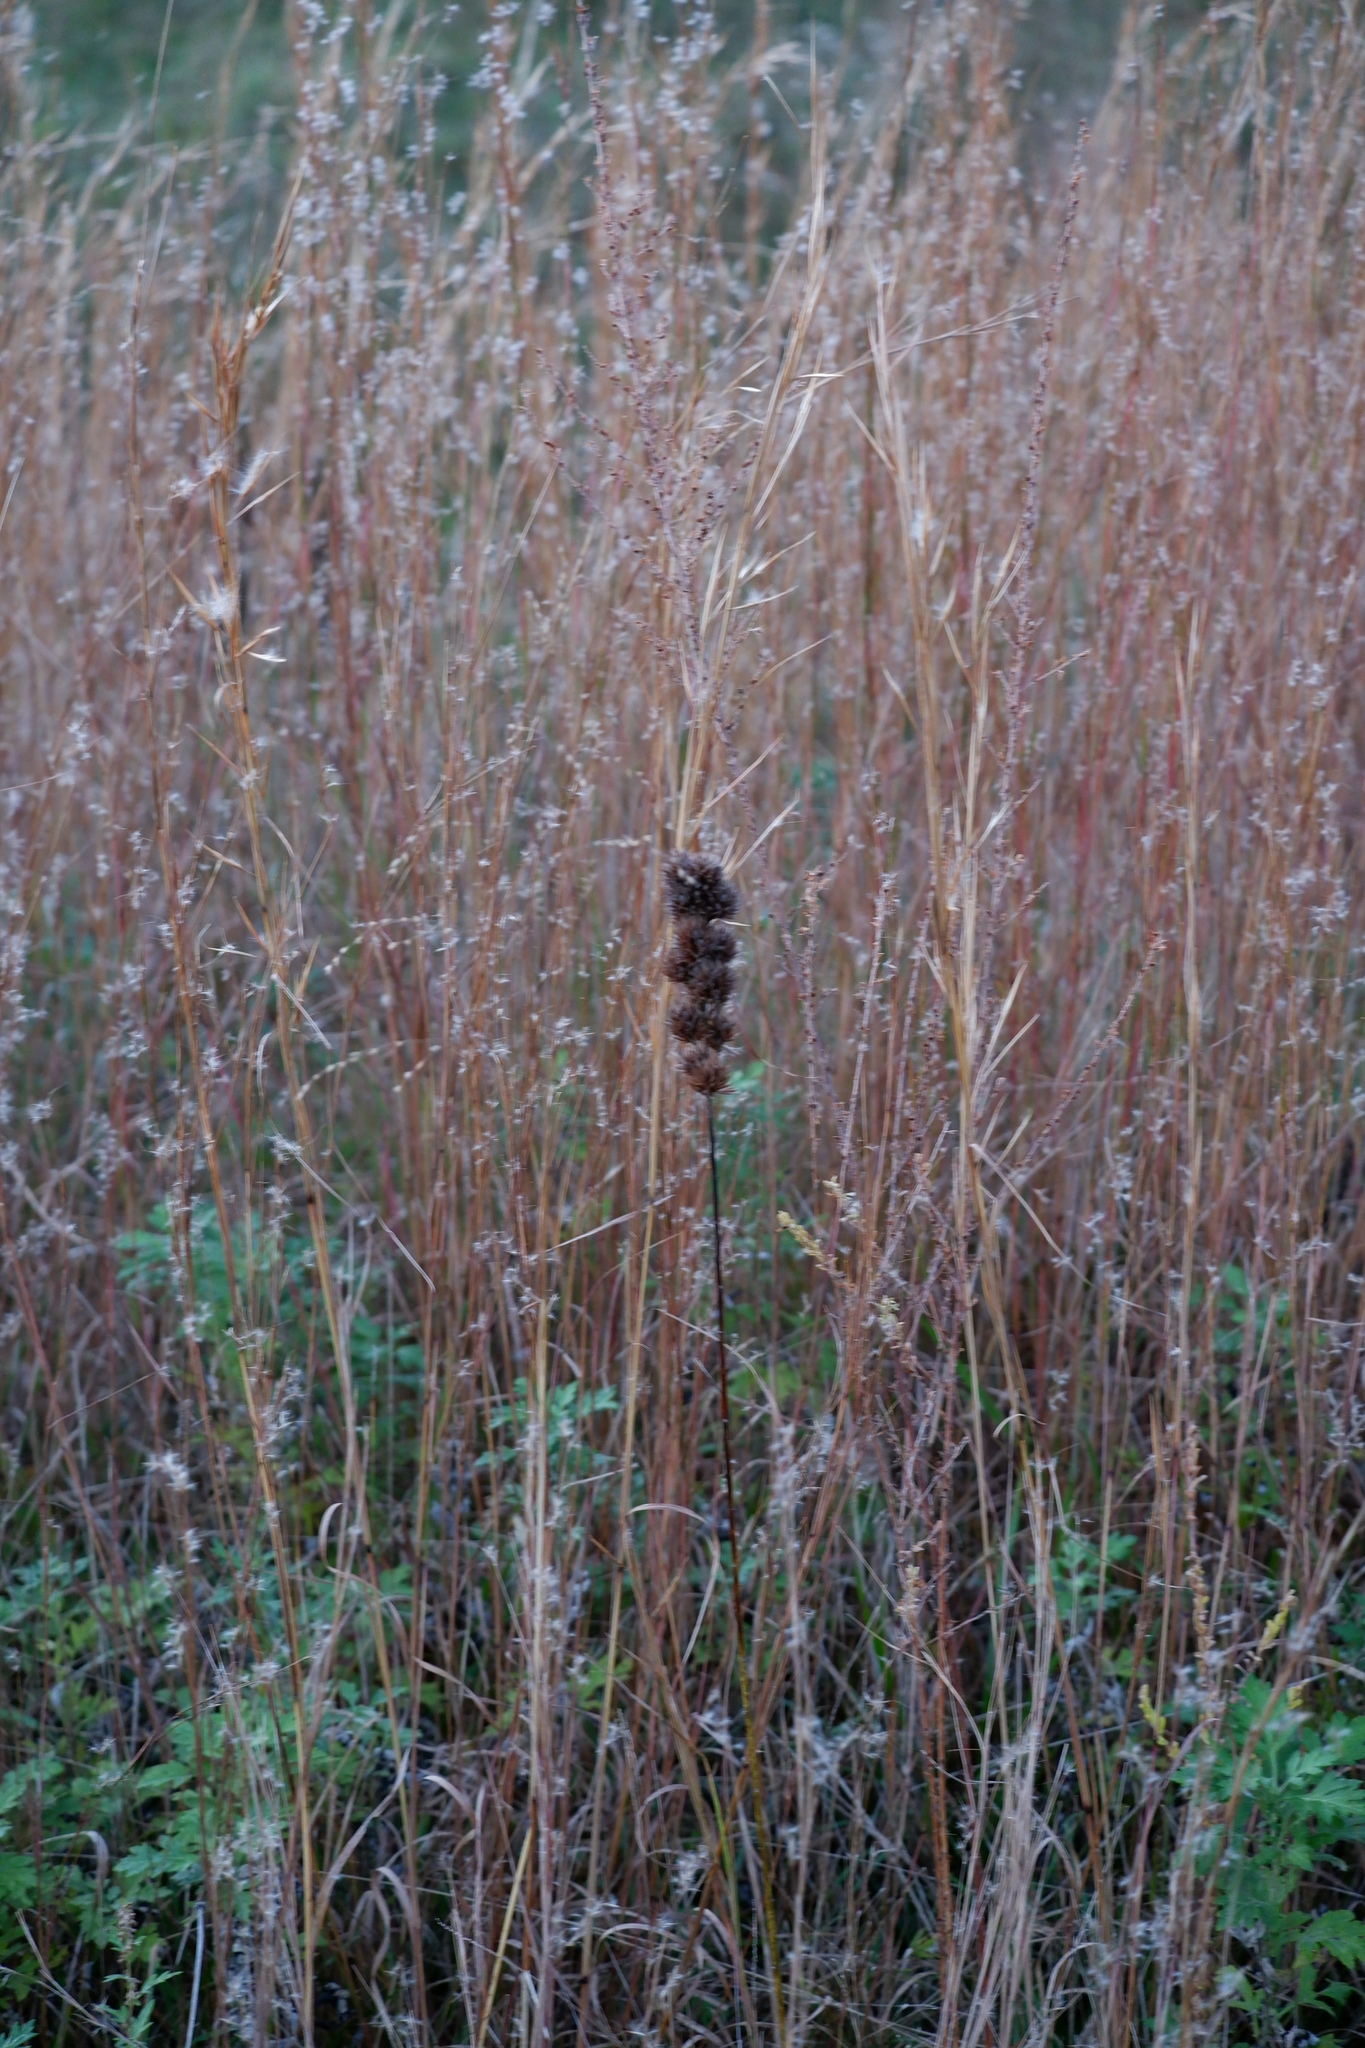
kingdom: Plantae
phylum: Tracheophyta
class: Magnoliopsida
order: Fabales
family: Fabaceae
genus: Lespedeza
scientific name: Lespedeza capitata
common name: Dusty clover
